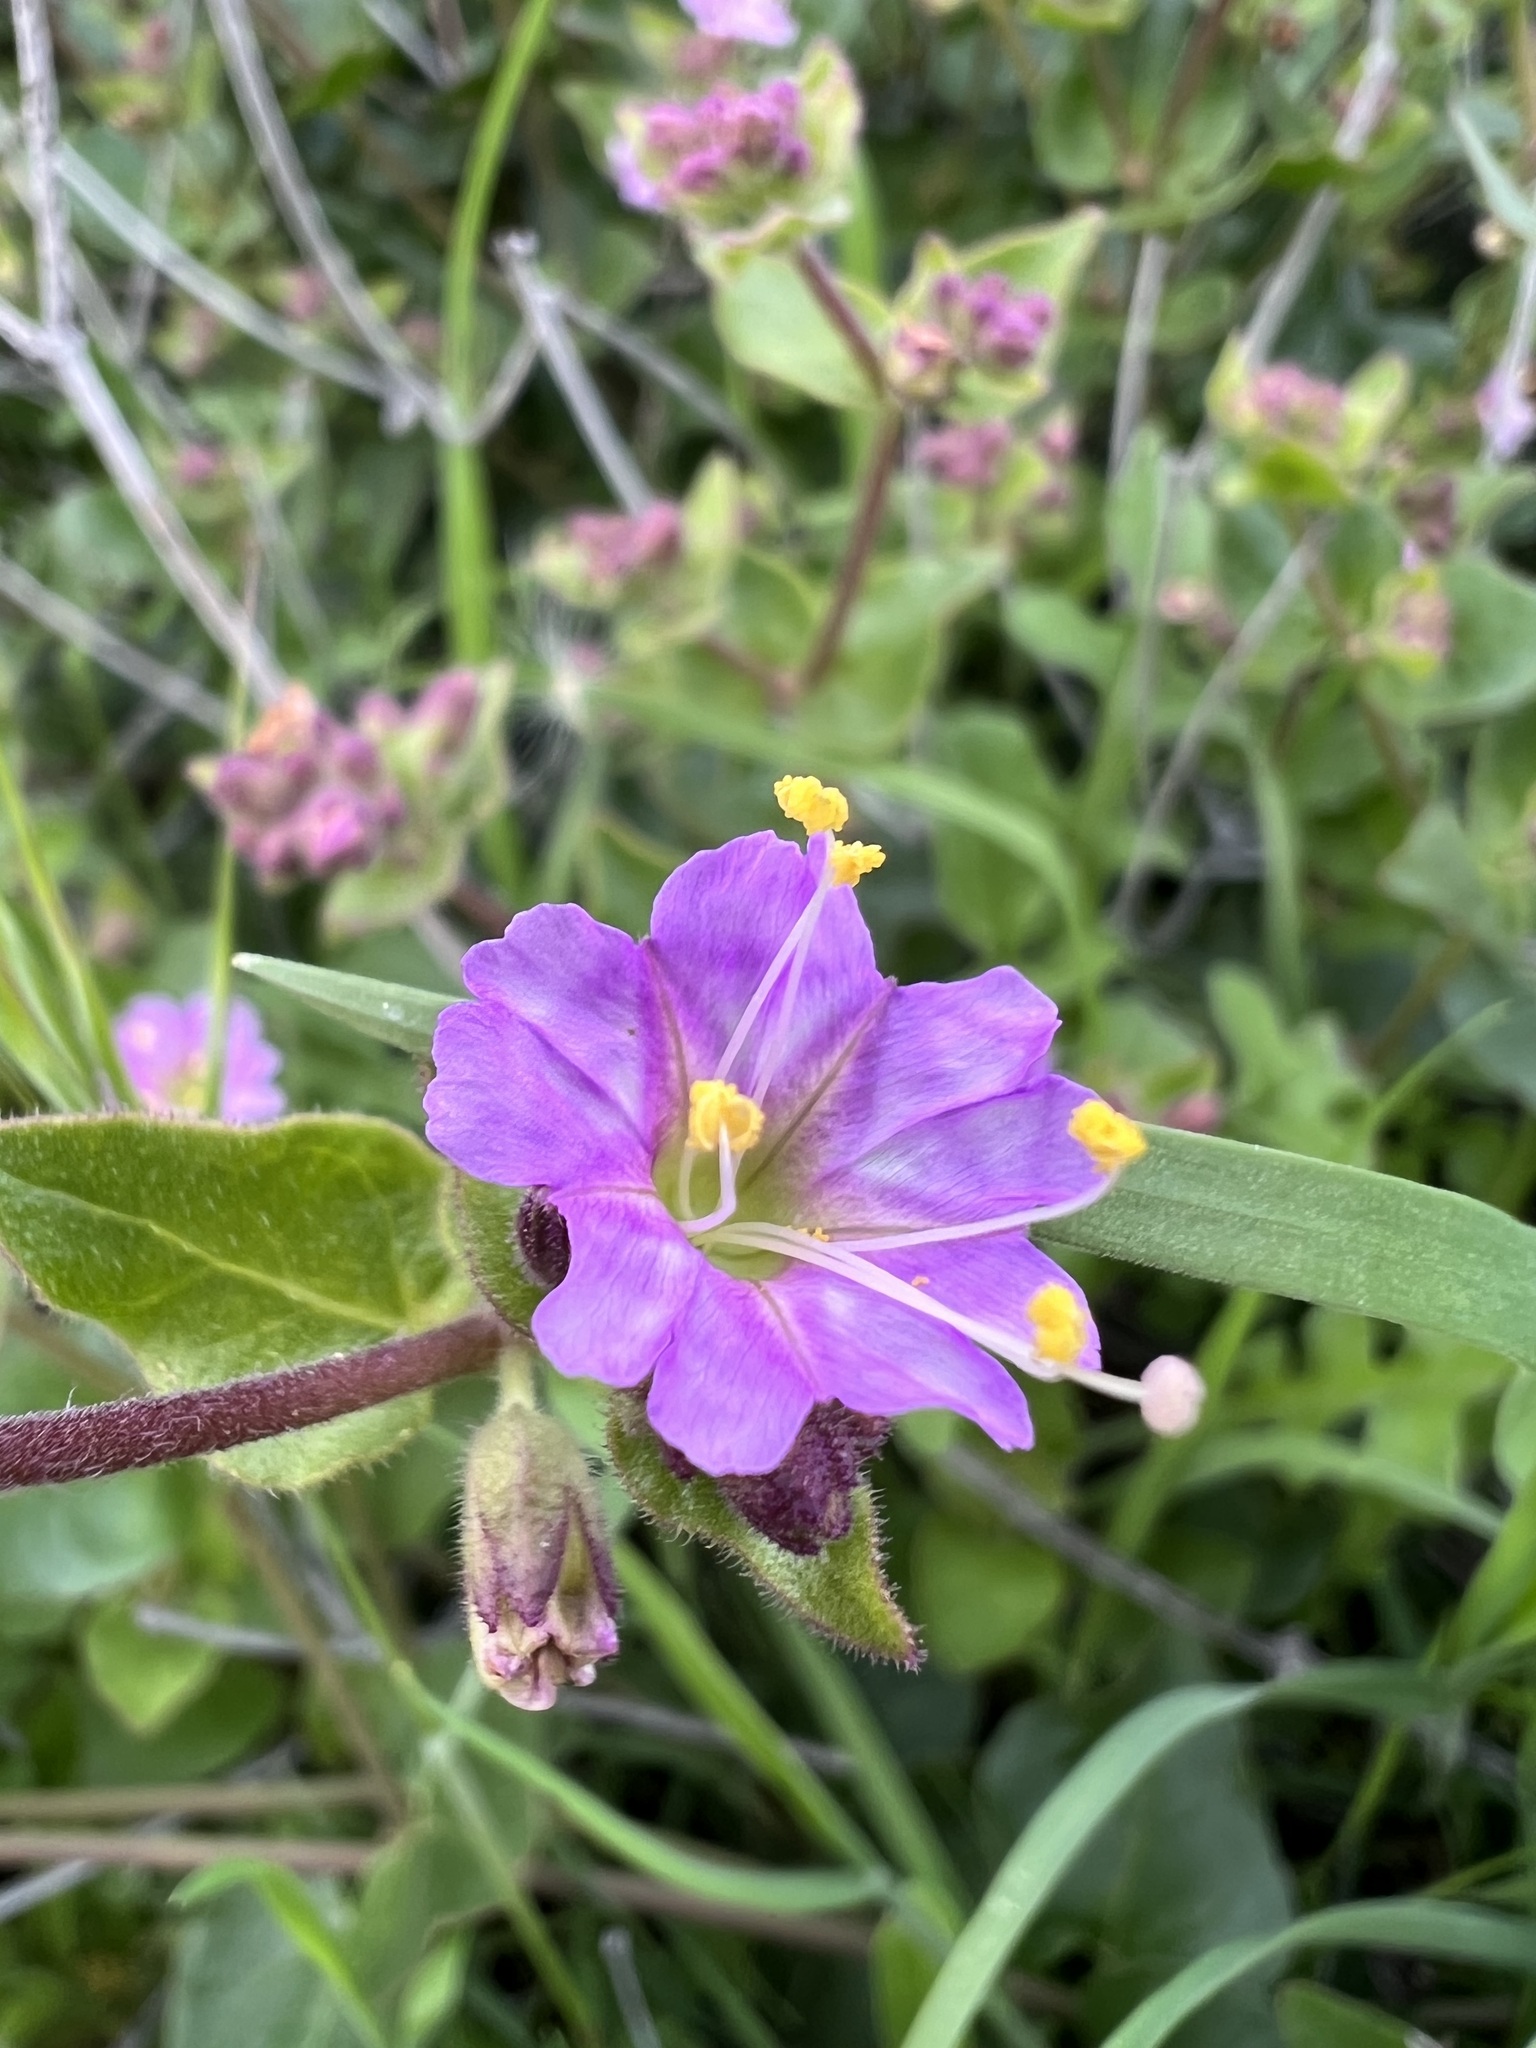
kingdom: Plantae
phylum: Tracheophyta
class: Magnoliopsida
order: Caryophyllales
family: Nyctaginaceae
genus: Mirabilis
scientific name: Mirabilis laevis
